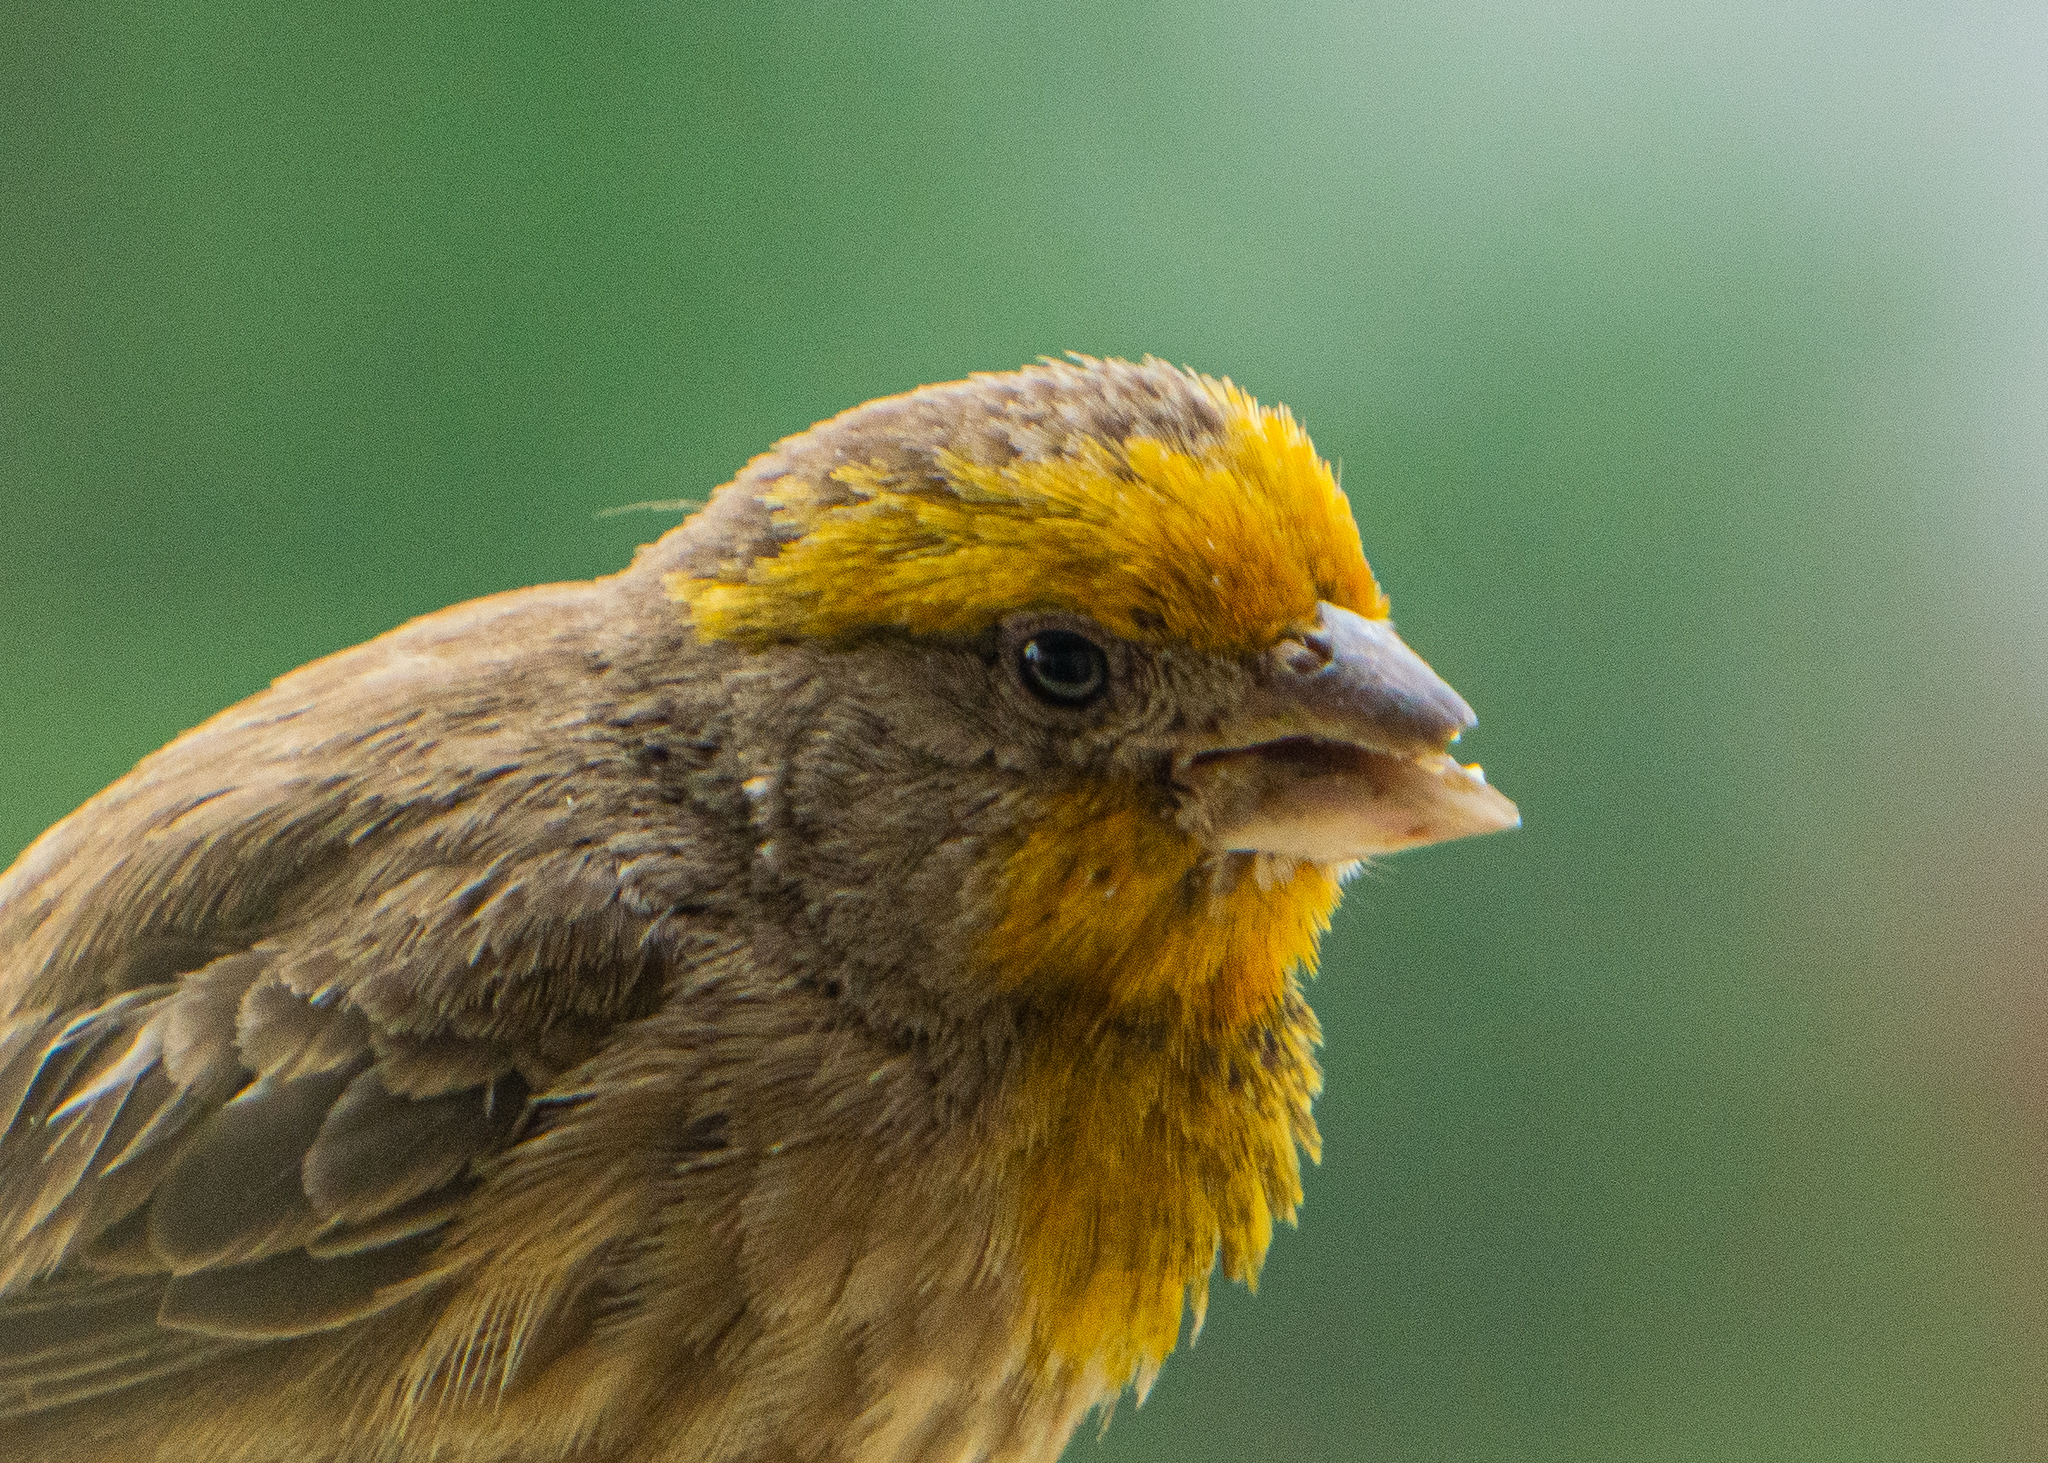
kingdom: Animalia
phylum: Chordata
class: Aves
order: Passeriformes
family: Fringillidae
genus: Haemorhous
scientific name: Haemorhous mexicanus
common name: House finch
